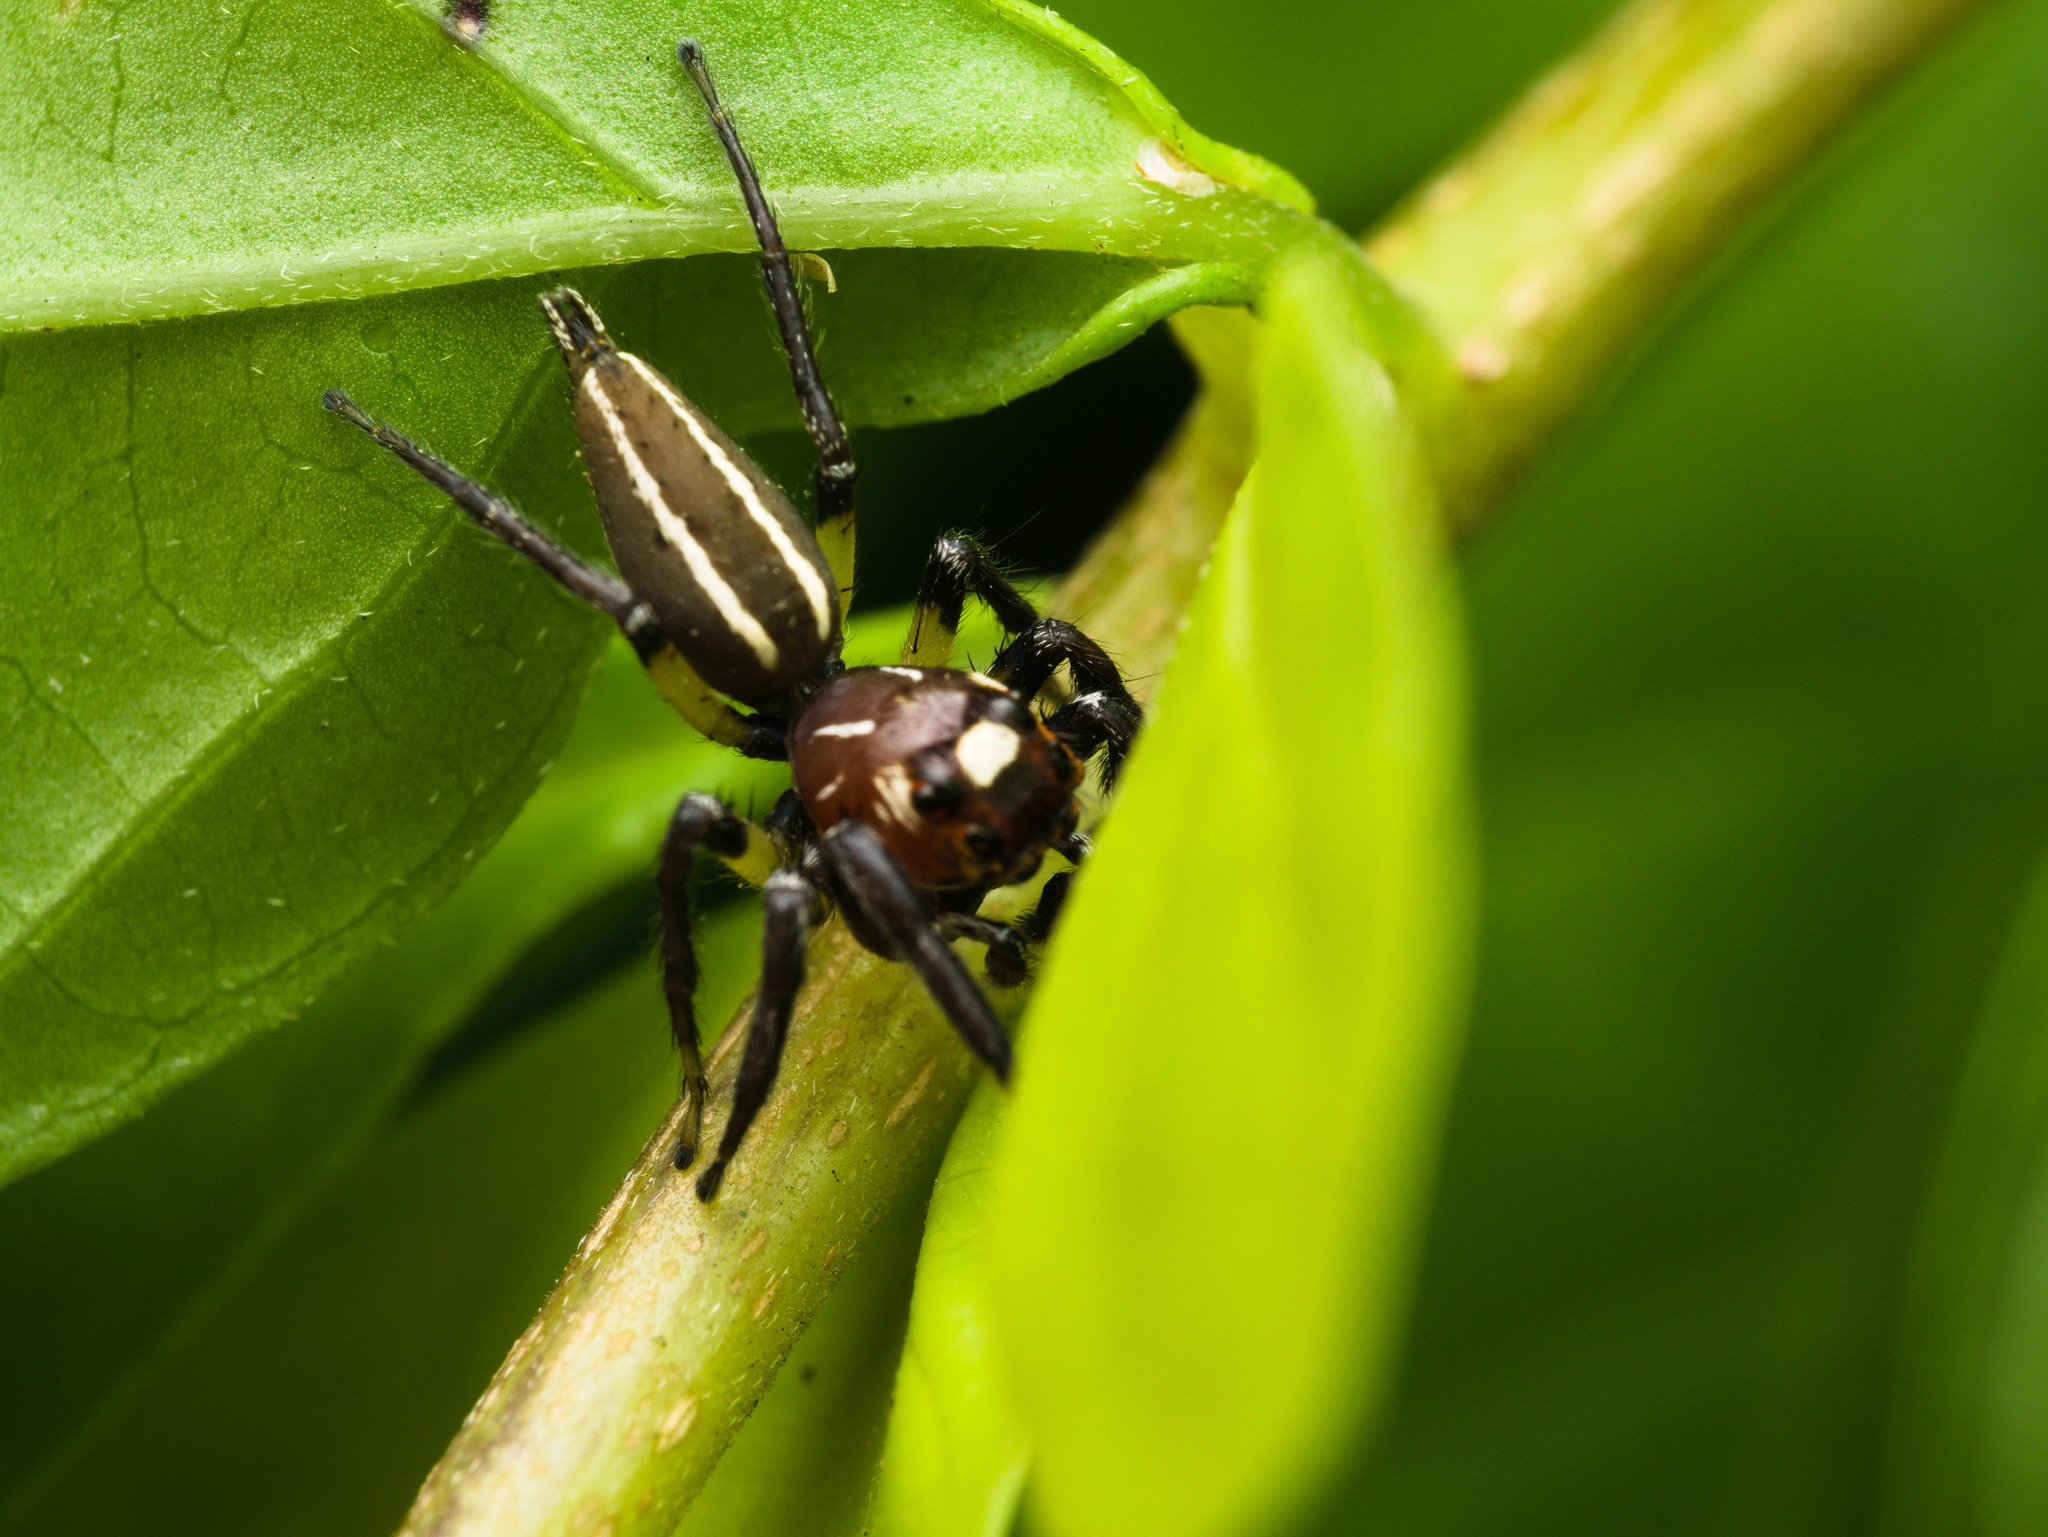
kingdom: Animalia
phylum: Arthropoda
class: Arachnida
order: Araneae
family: Salticidae
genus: Colonus
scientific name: Colonus sylvanus
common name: Jumping spiders
